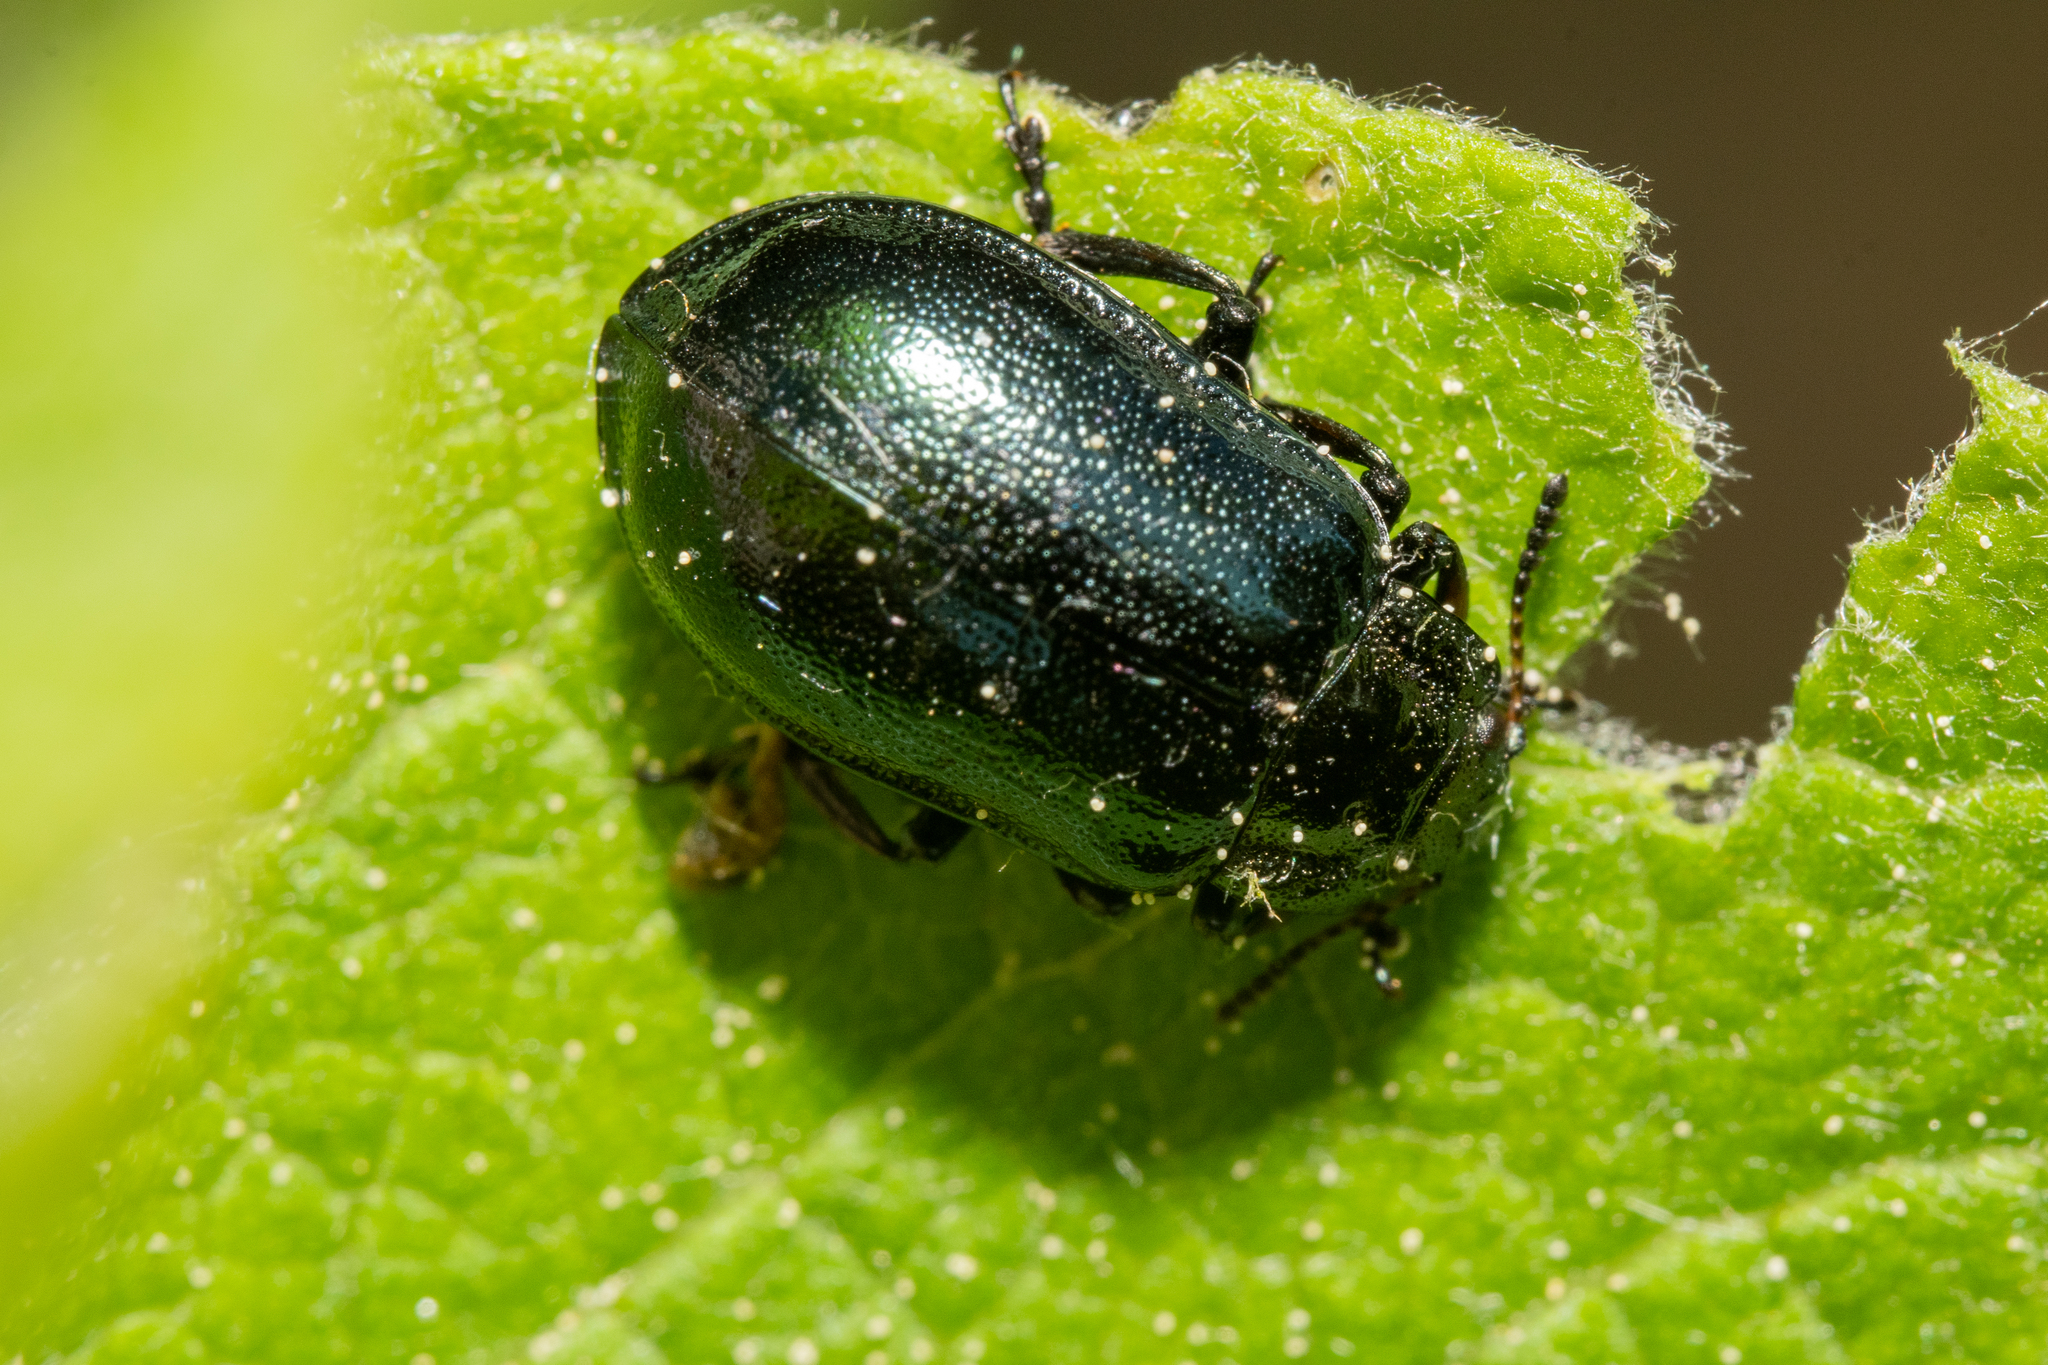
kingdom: Animalia
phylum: Arthropoda
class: Insecta
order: Coleoptera
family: Chrysomelidae
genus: Chrysomela
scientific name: Chrysomela lapponica
